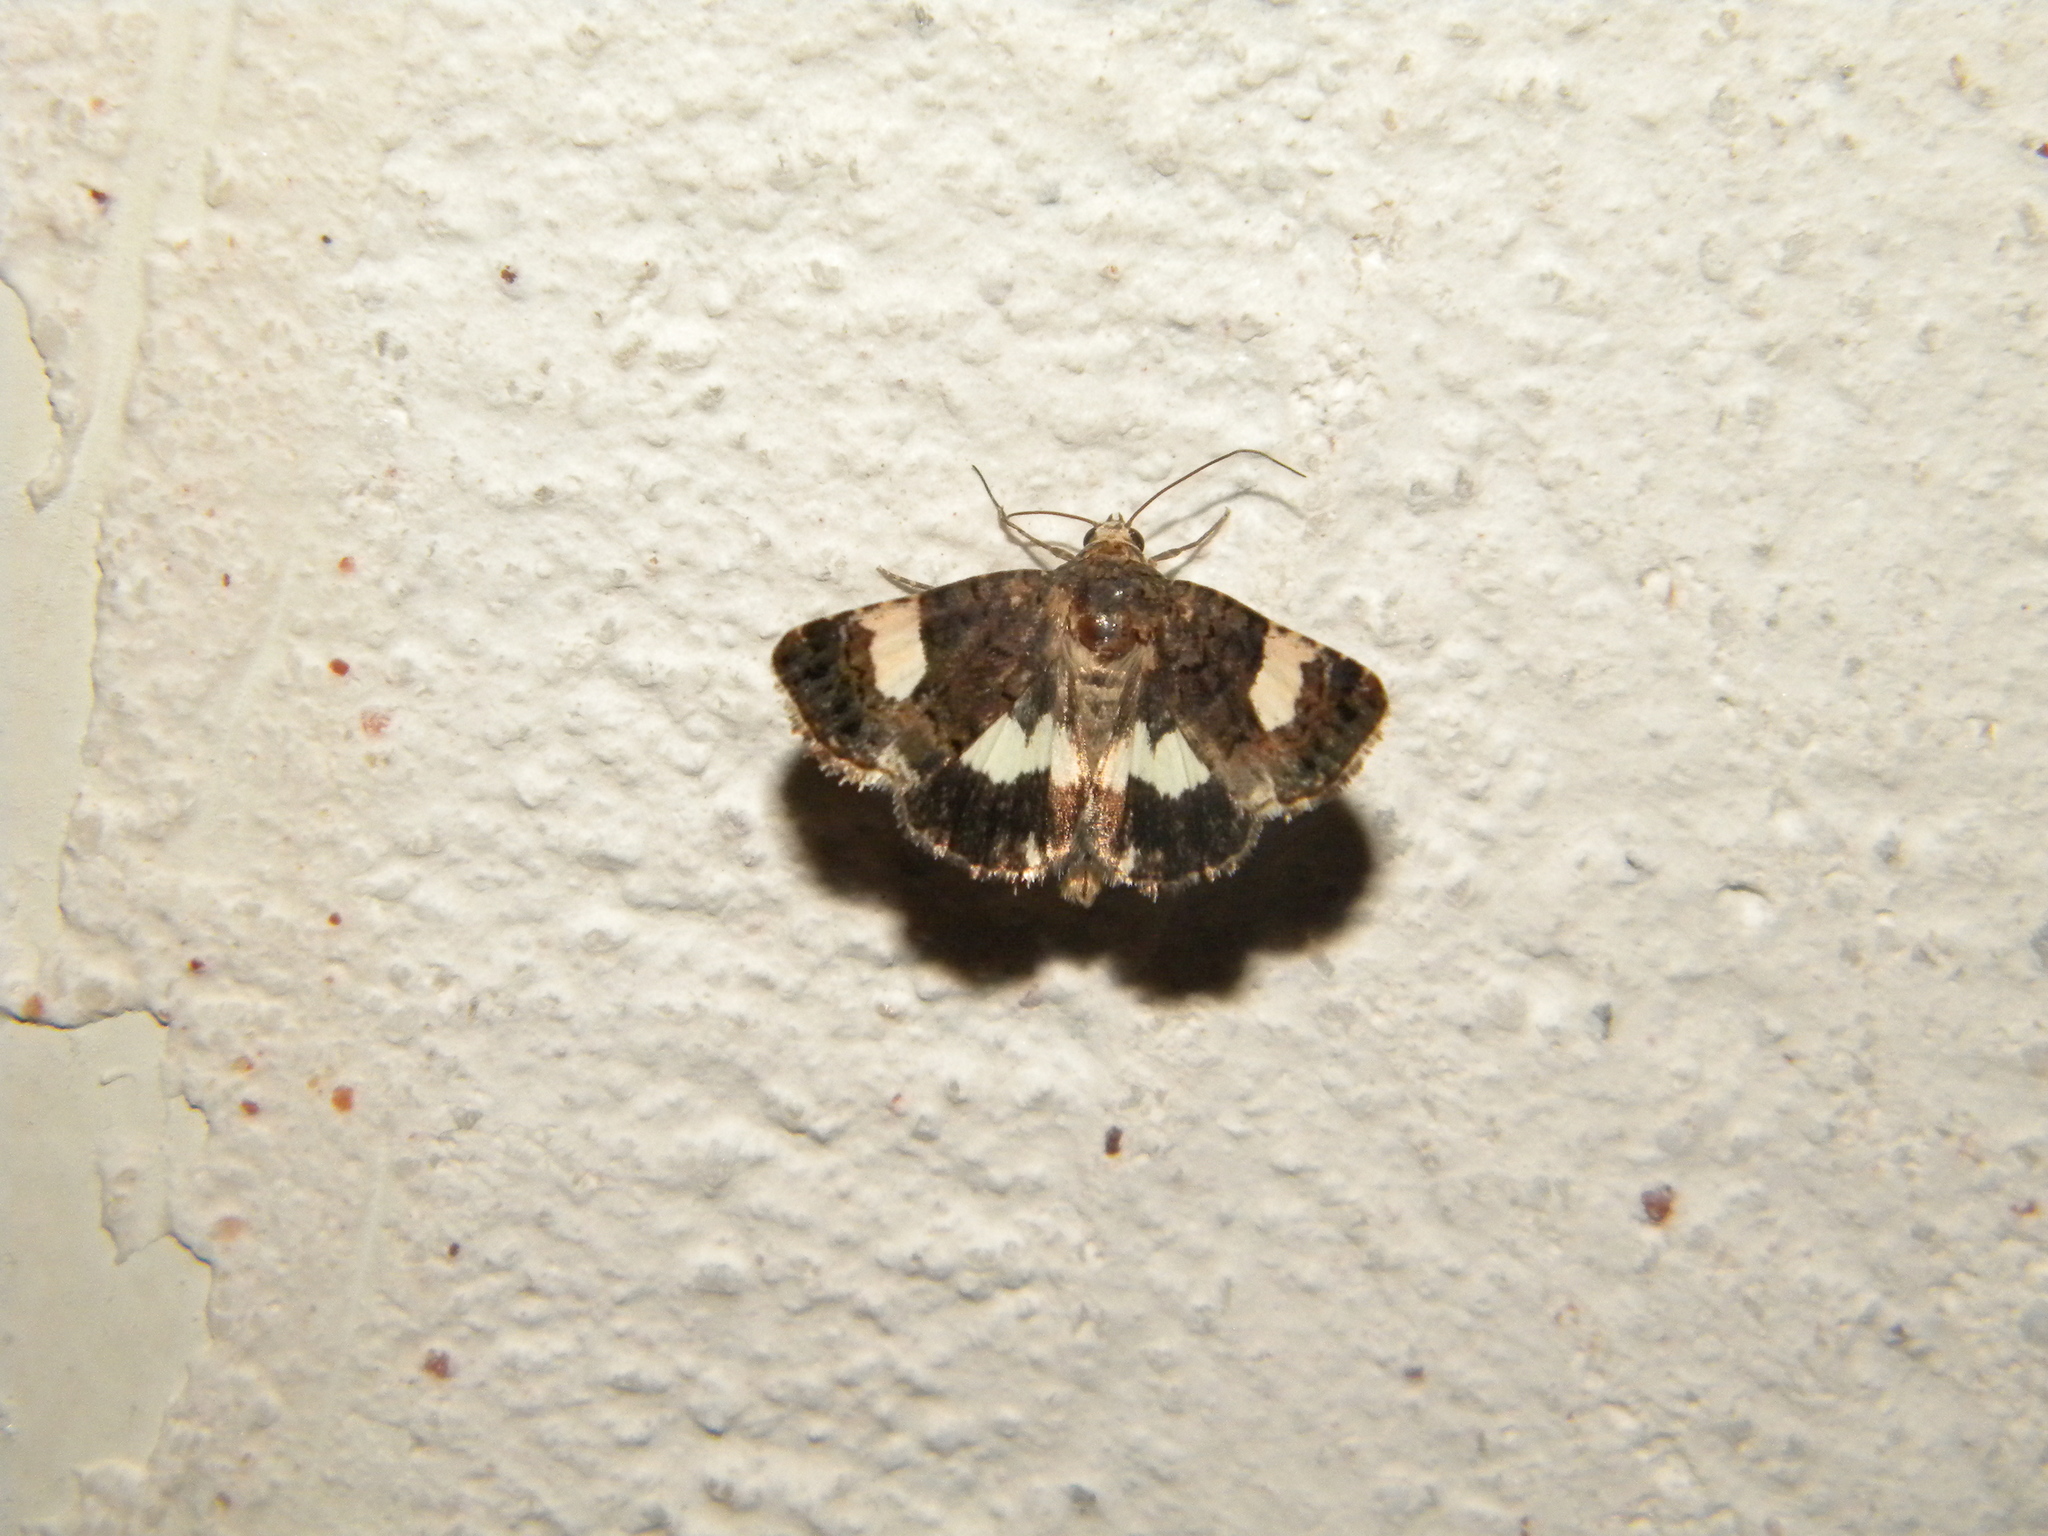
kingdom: Animalia
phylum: Arthropoda
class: Insecta
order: Lepidoptera
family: Erebidae
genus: Tyta
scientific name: Tyta luctuosa
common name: Four-spotted
